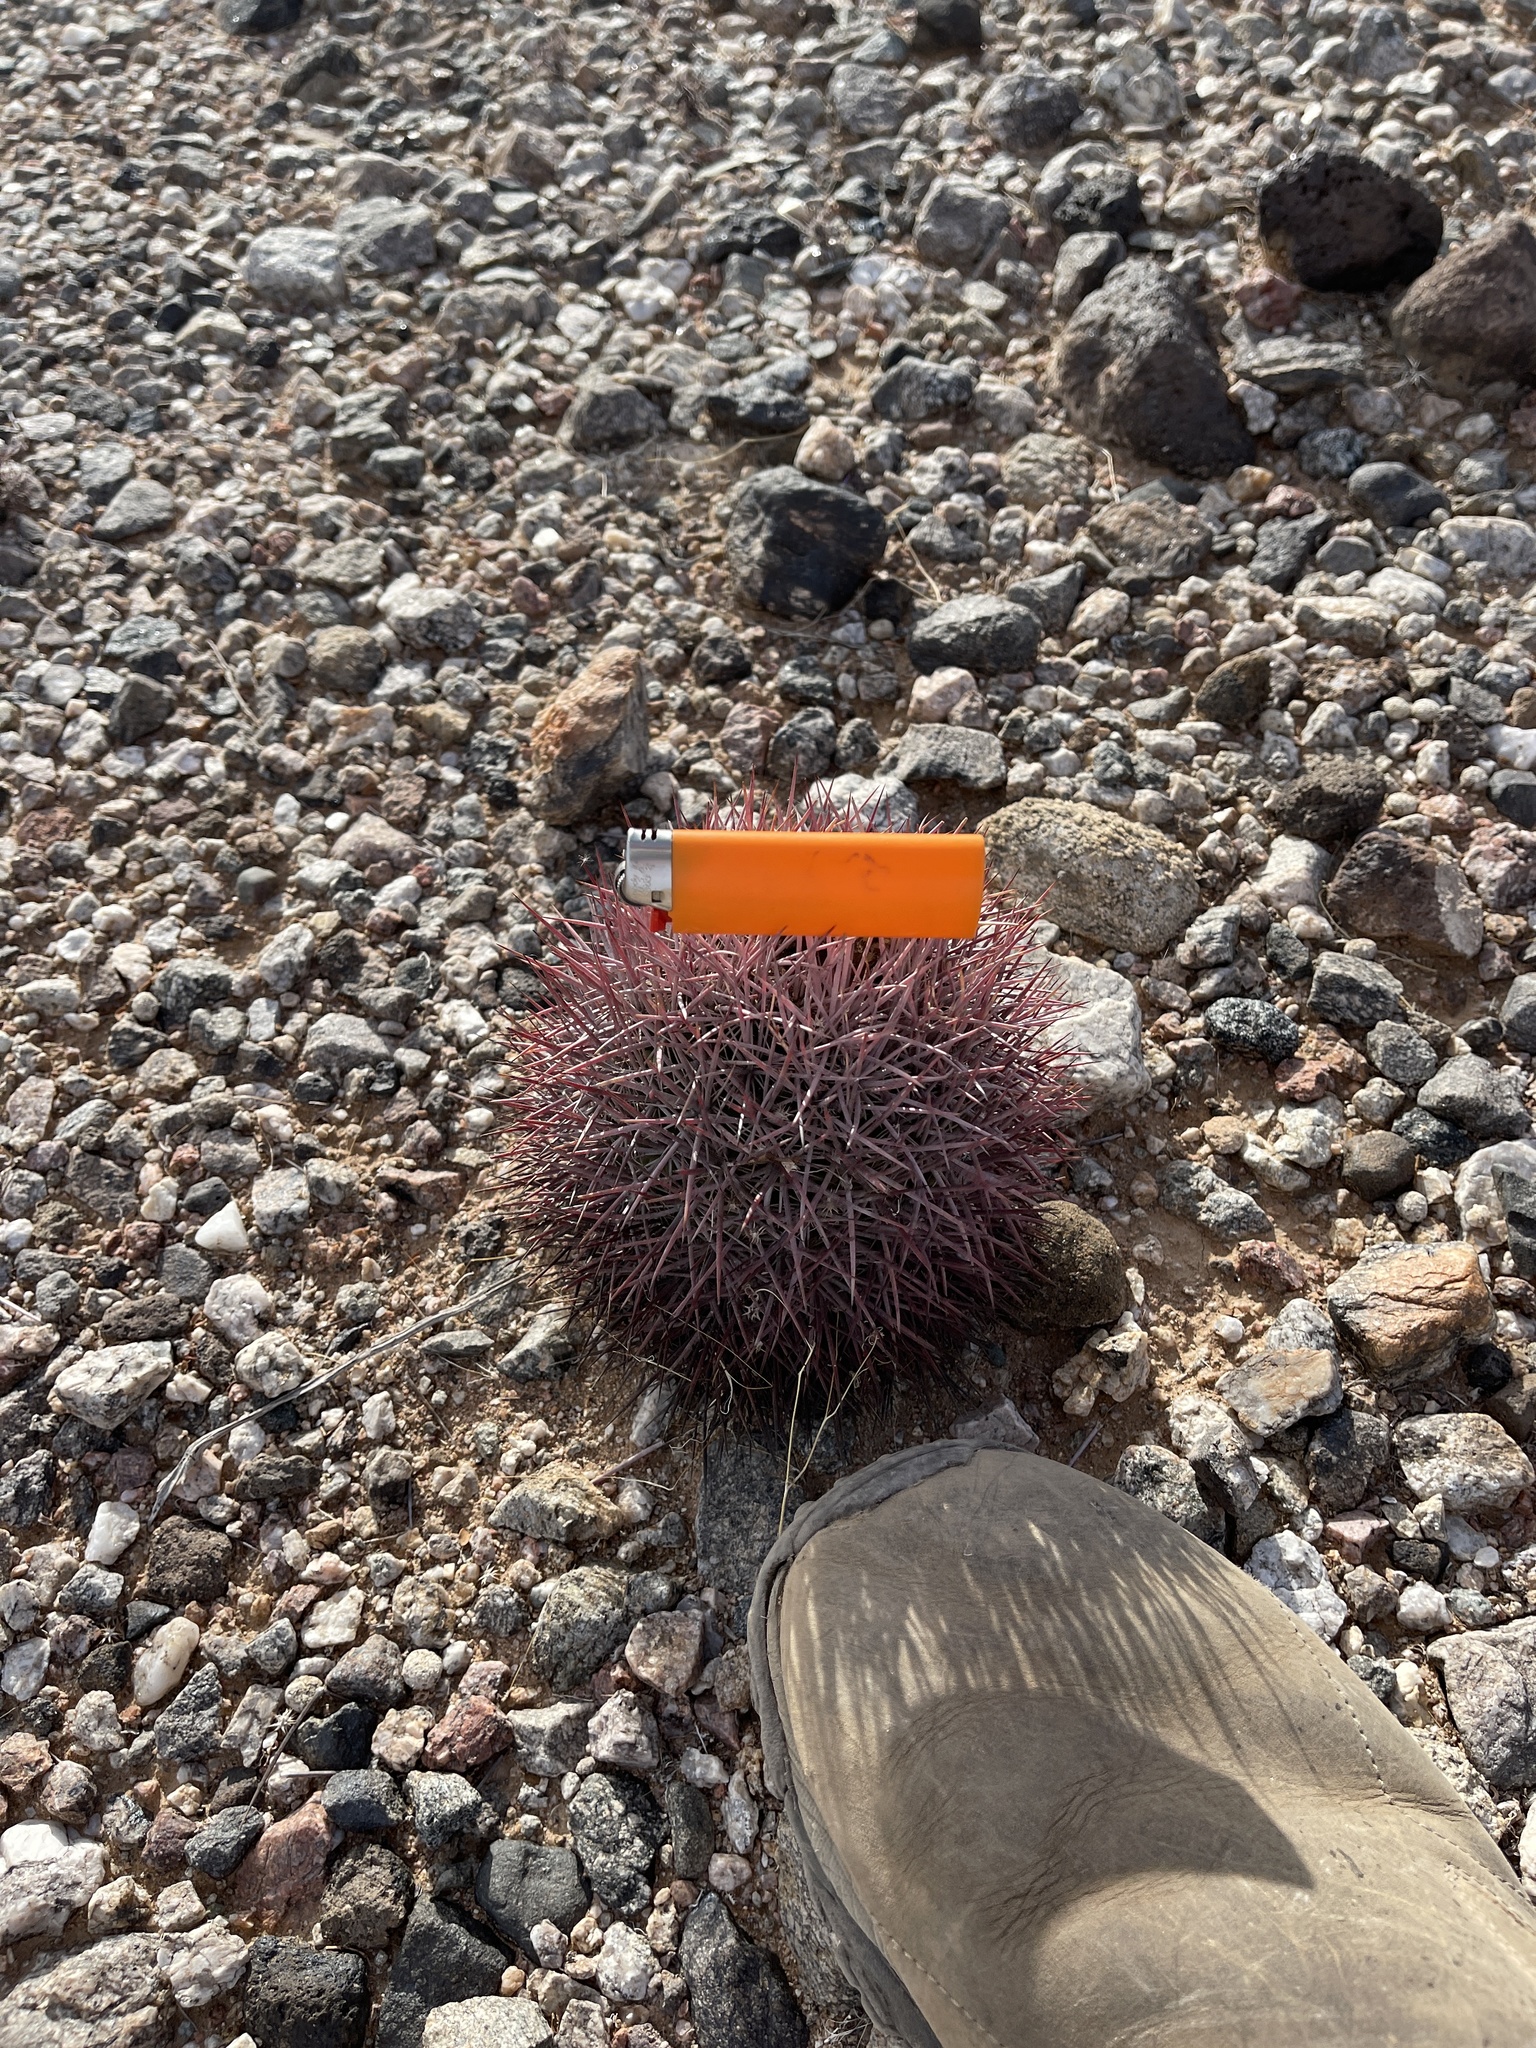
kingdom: Plantae
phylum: Tracheophyta
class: Magnoliopsida
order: Caryophyllales
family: Cactaceae
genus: Sclerocactus
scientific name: Sclerocactus johnsonii
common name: Eight-spine fishhook cactus
